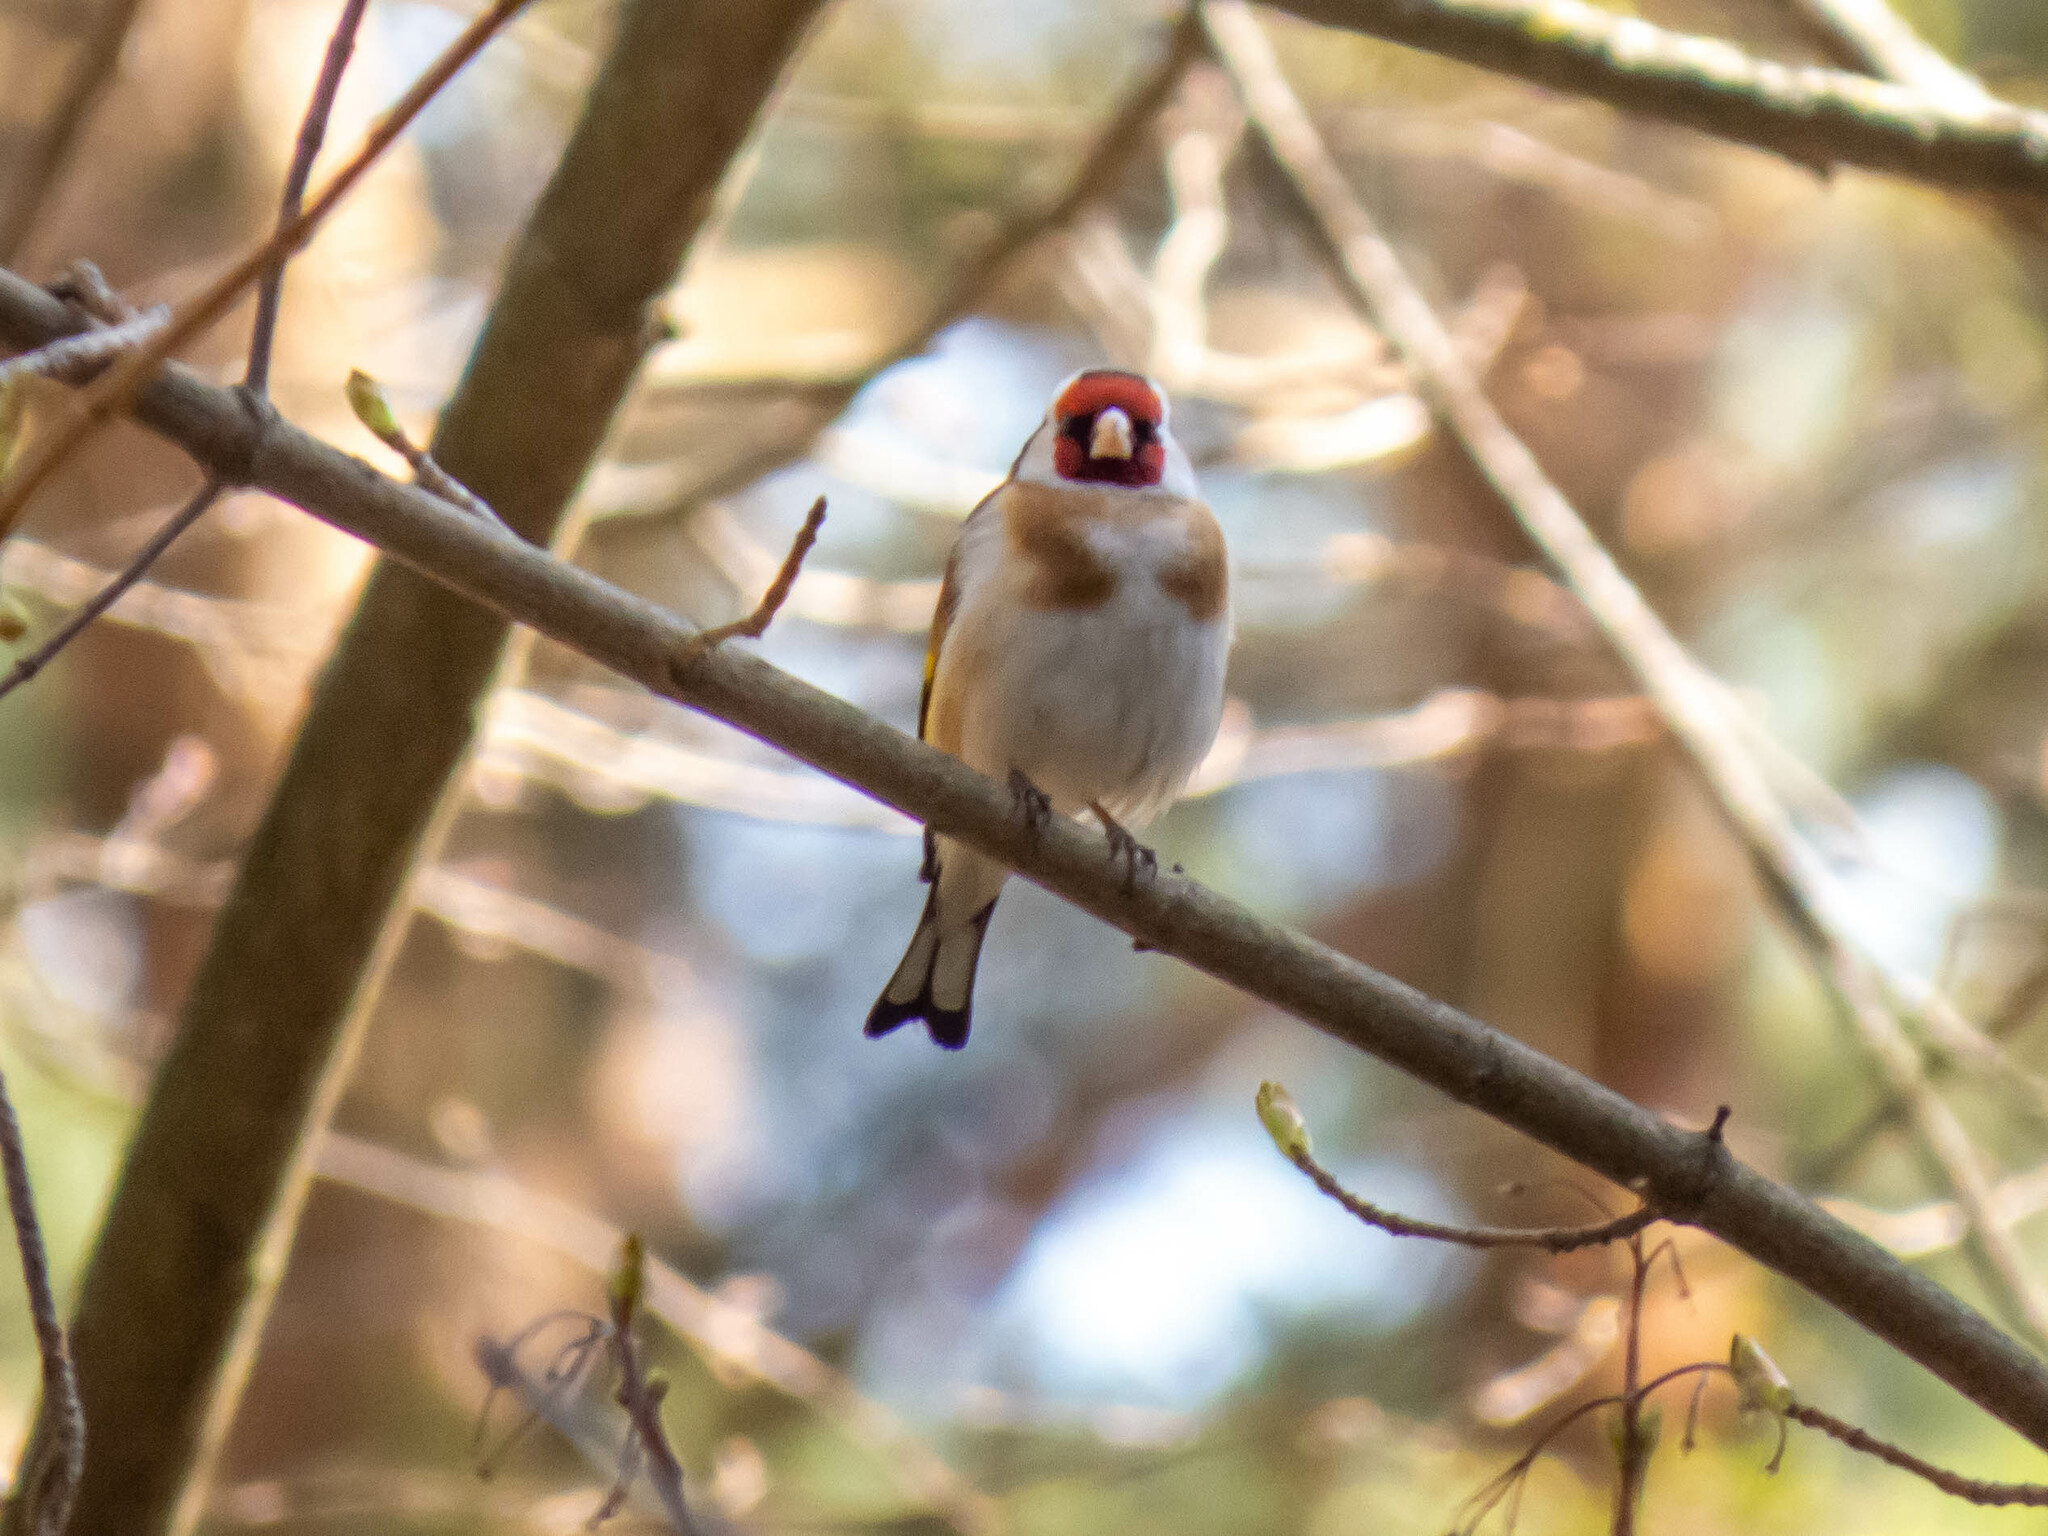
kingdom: Animalia
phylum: Chordata
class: Aves
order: Passeriformes
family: Fringillidae
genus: Carduelis
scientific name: Carduelis carduelis
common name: European goldfinch
